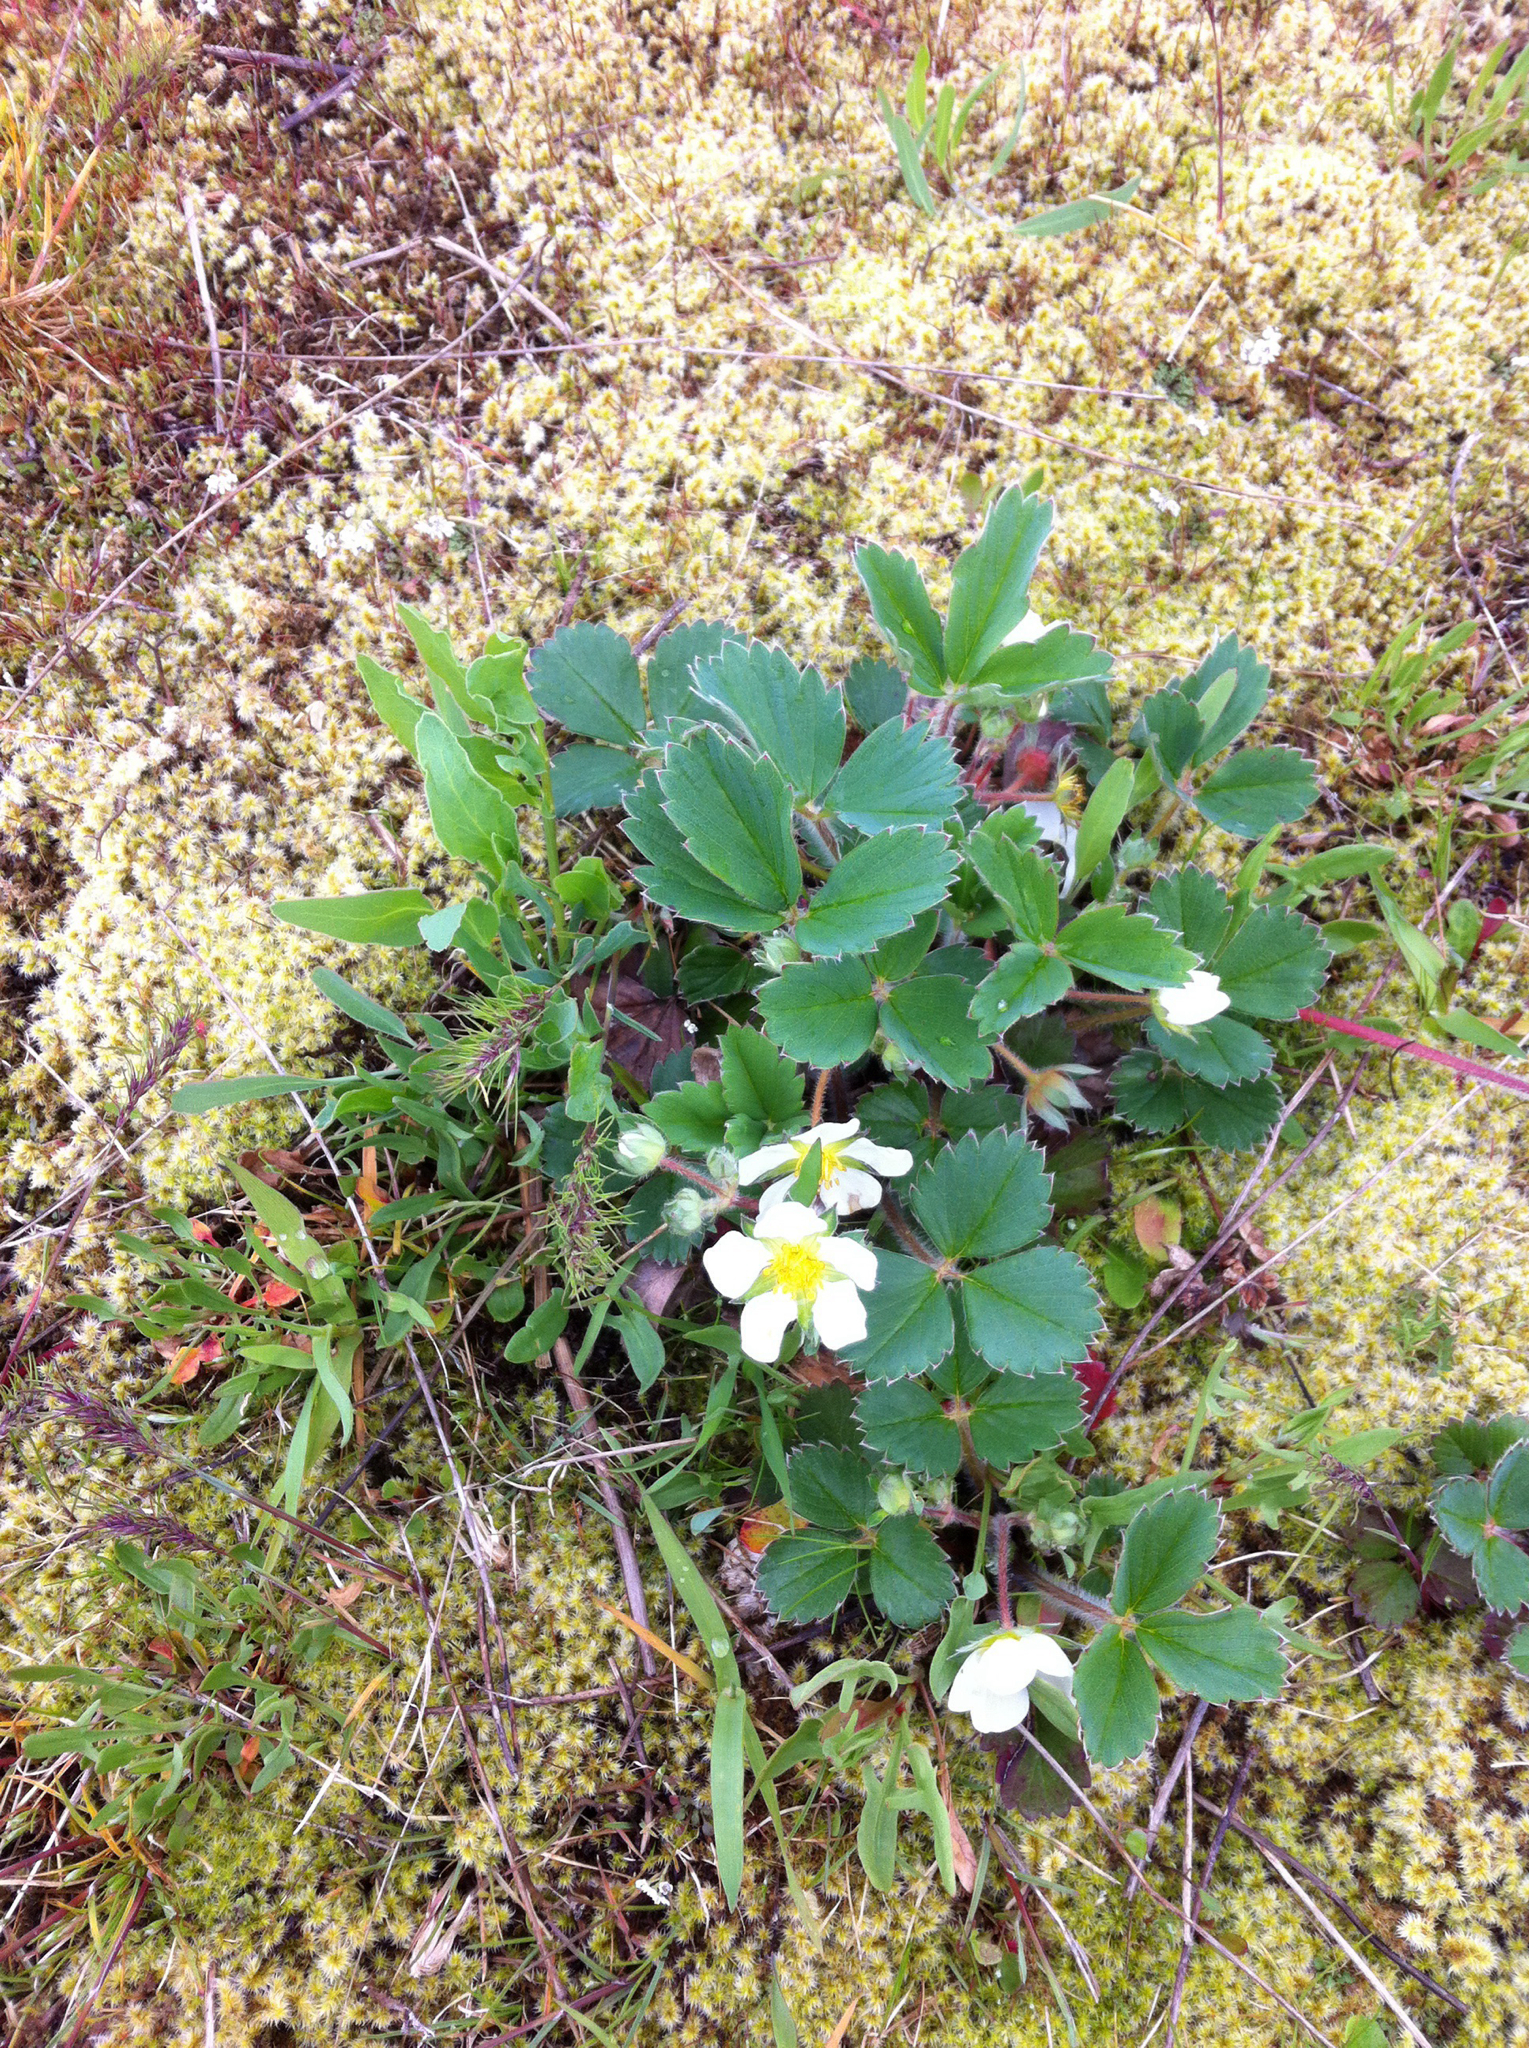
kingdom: Plantae
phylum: Tracheophyta
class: Magnoliopsida
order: Rosales
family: Rosaceae
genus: Fragaria
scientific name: Fragaria virginiana
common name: Thickleaved wild strawberry
